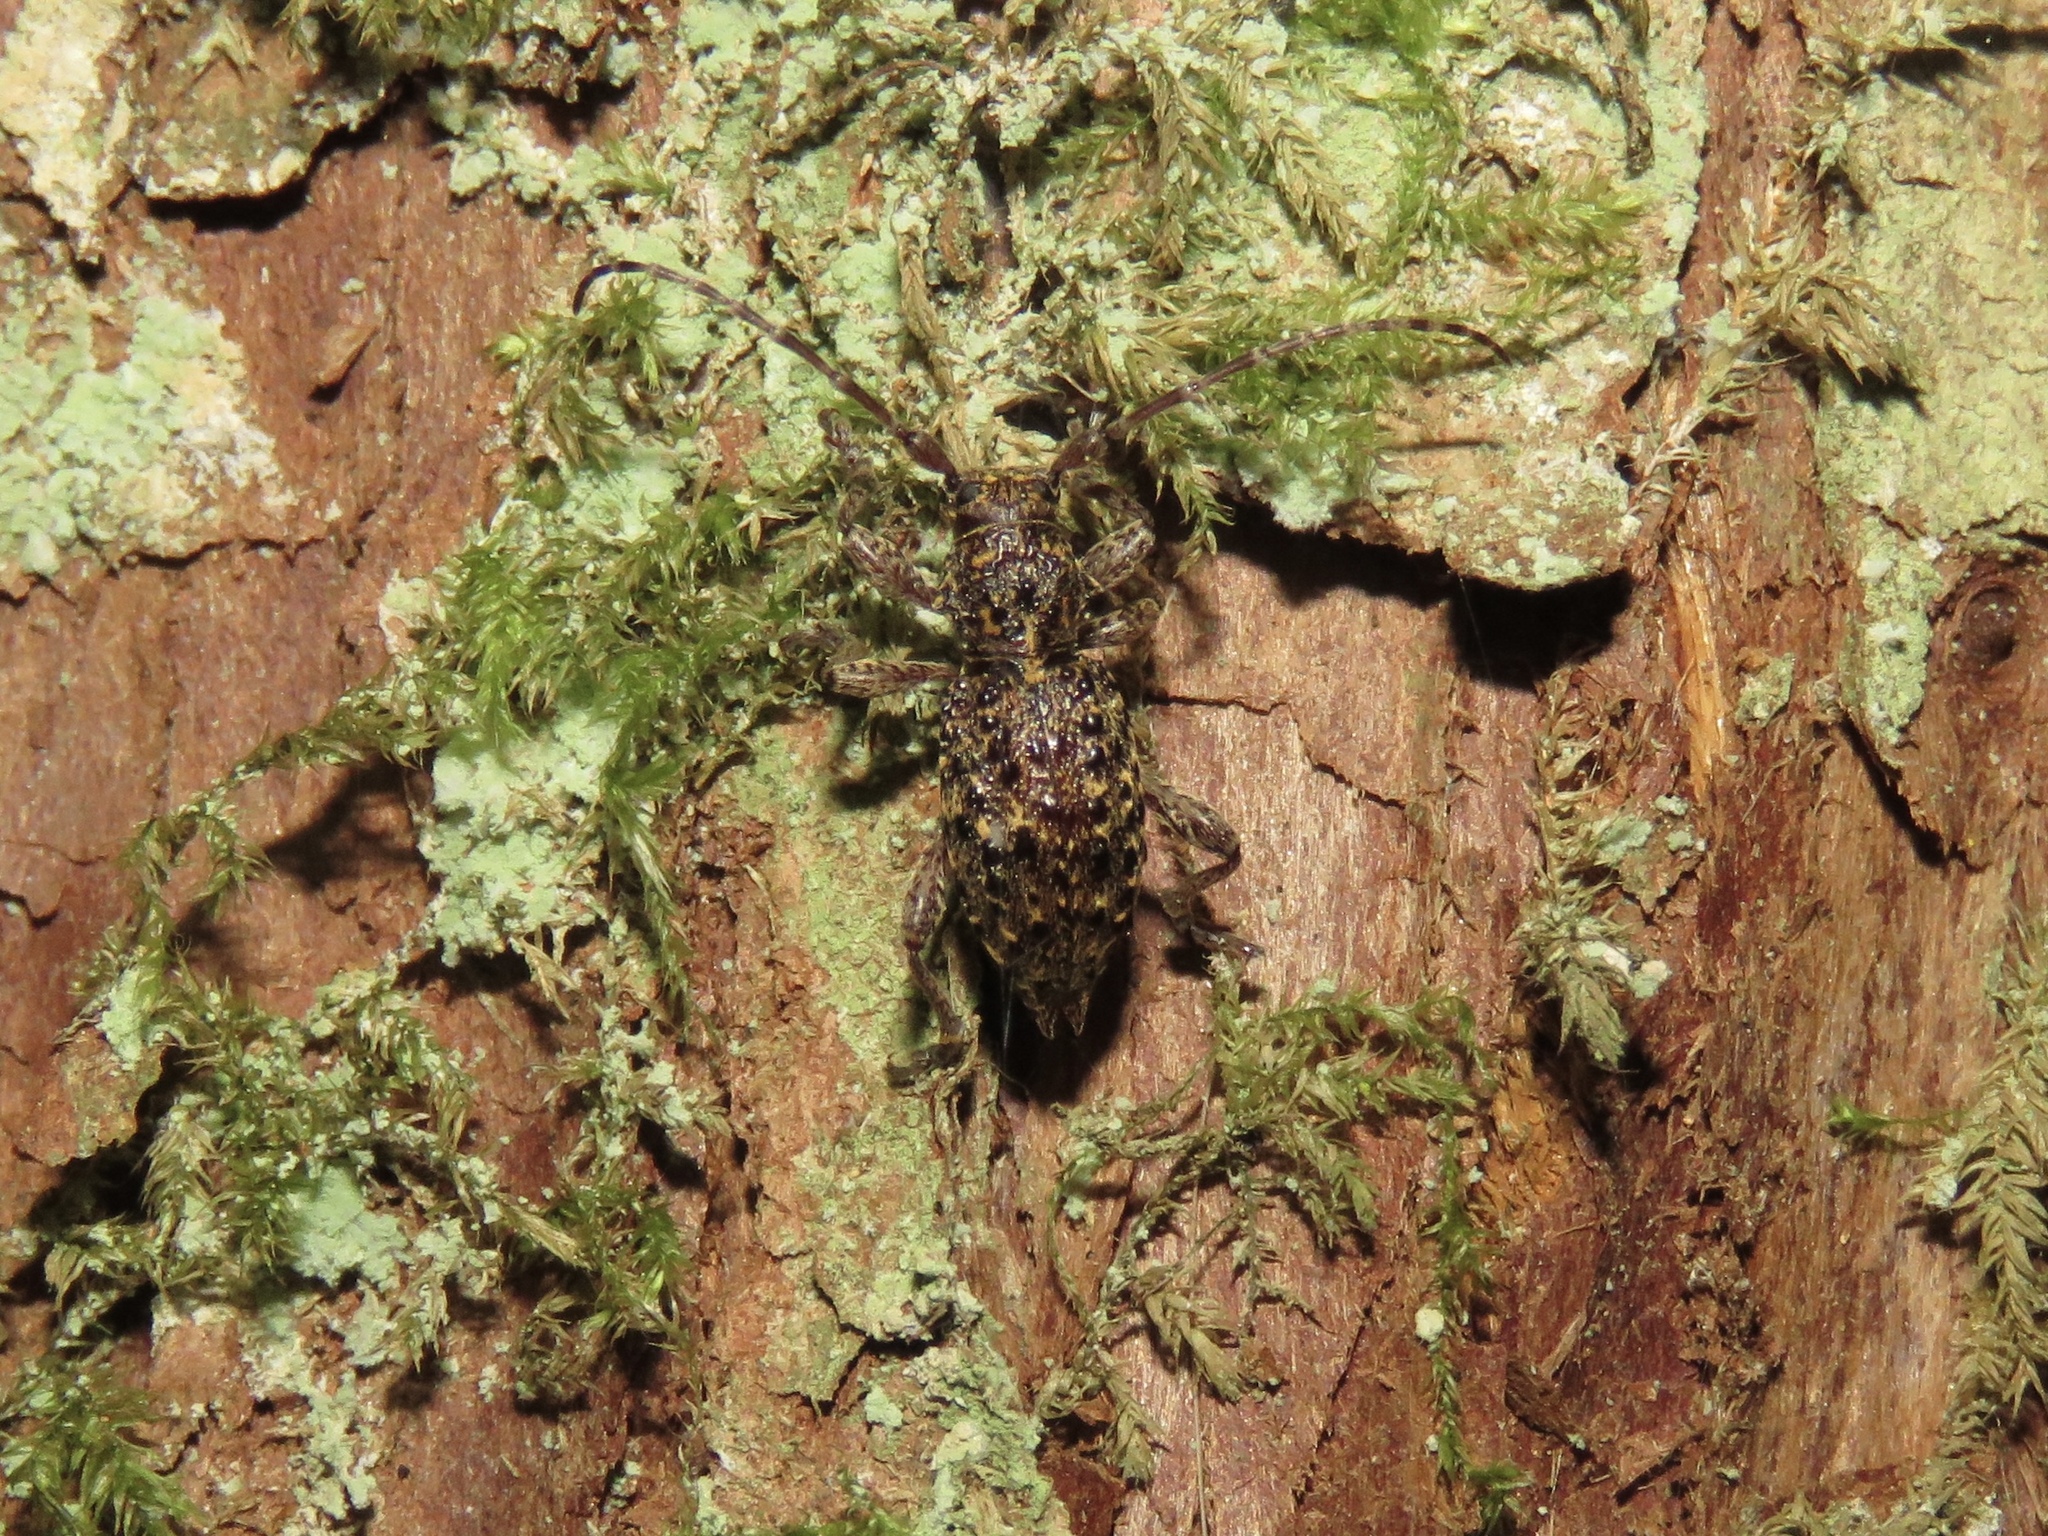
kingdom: Animalia
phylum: Arthropoda
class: Insecta
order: Coleoptera
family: Cerambycidae
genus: Plectrura
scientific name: Plectrura spinicauda
